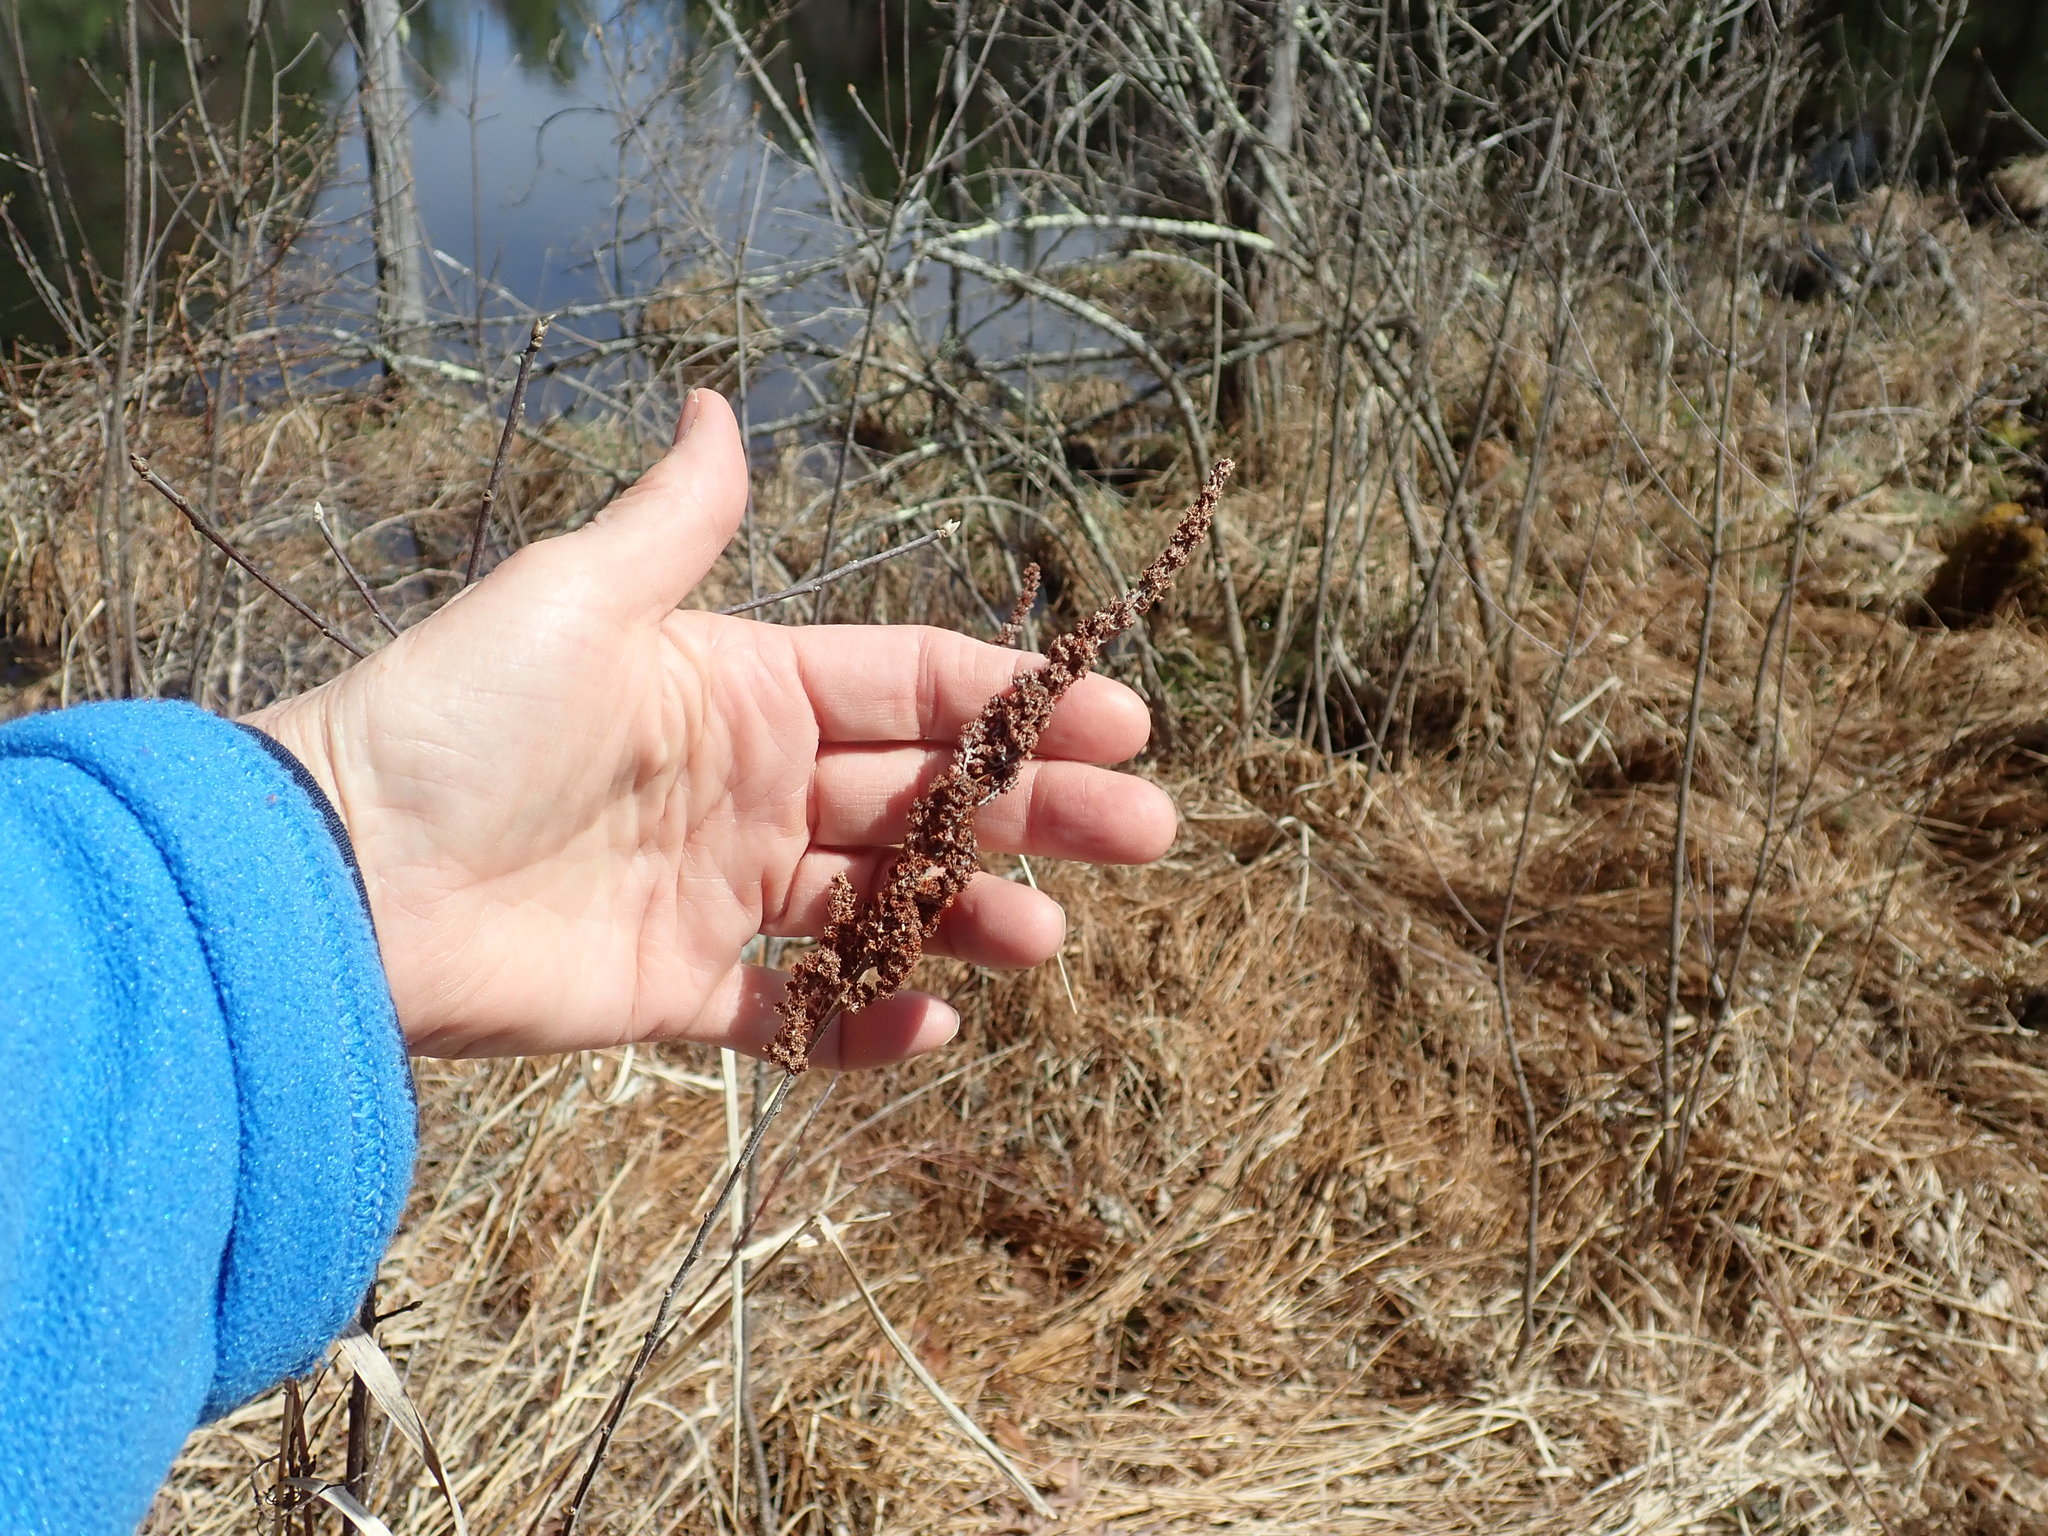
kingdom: Plantae
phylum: Tracheophyta
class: Magnoliopsida
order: Rosales
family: Rosaceae
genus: Spiraea
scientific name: Spiraea tomentosa
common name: Hardhack
